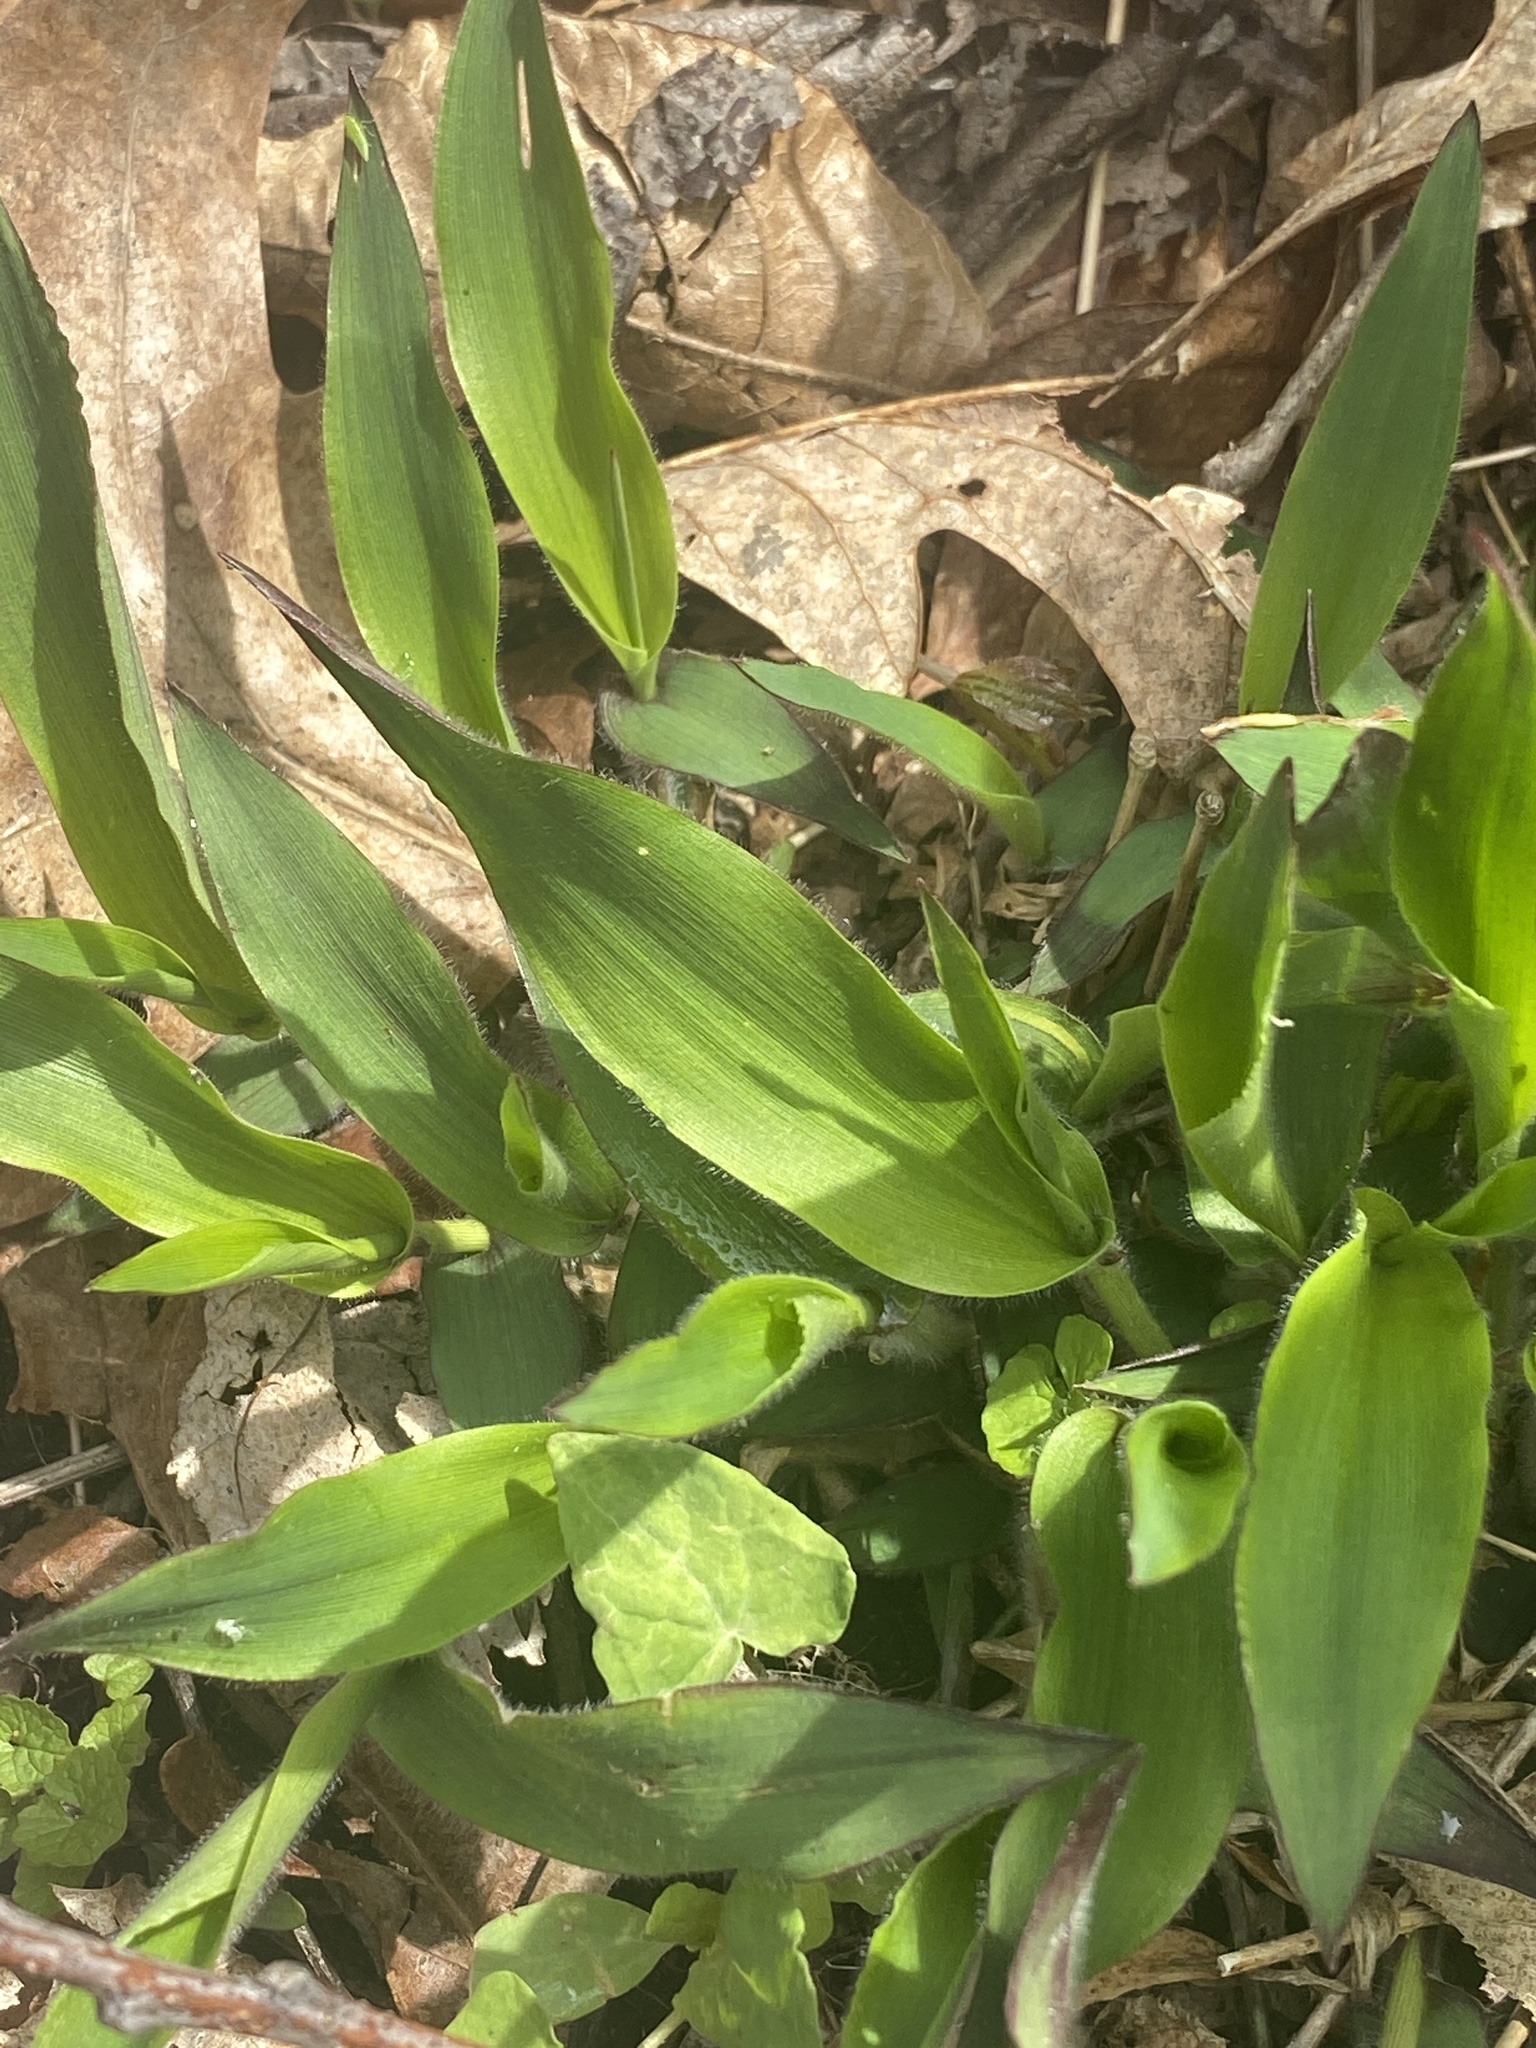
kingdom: Plantae
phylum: Tracheophyta
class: Liliopsida
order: Poales
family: Poaceae
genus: Dichanthelium
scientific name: Dichanthelium clandestinum
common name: Deer-tongue grass
